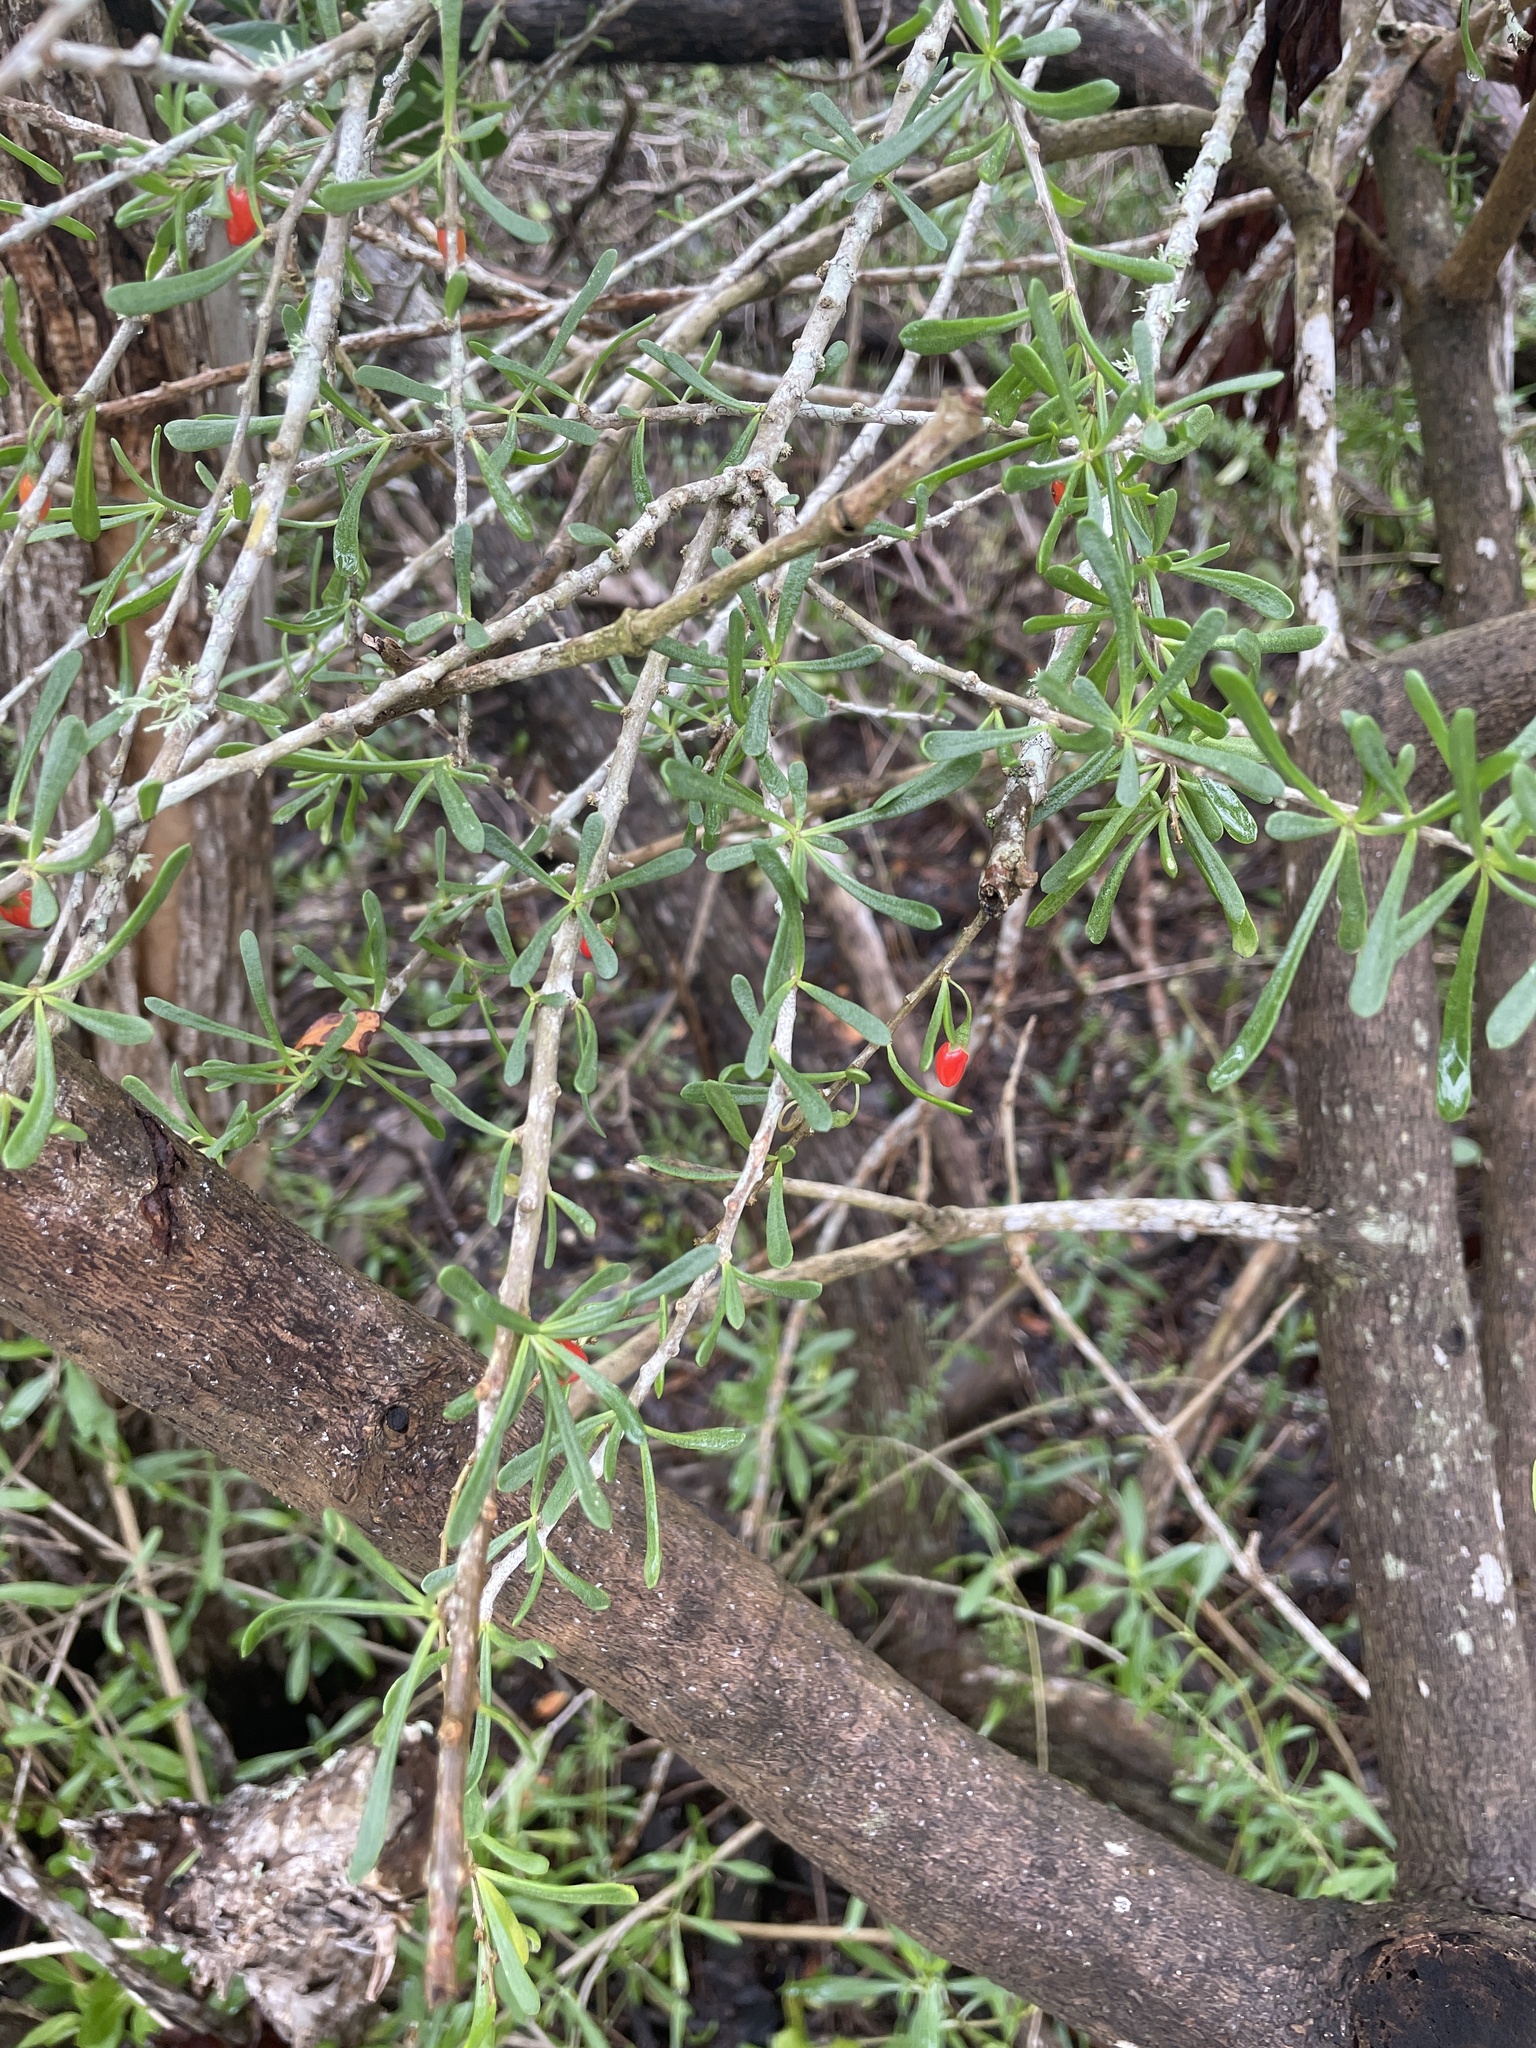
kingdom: Plantae
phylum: Tracheophyta
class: Magnoliopsida
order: Solanales
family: Solanaceae
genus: Lycium
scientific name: Lycium carolinianum
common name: Christmasberry
